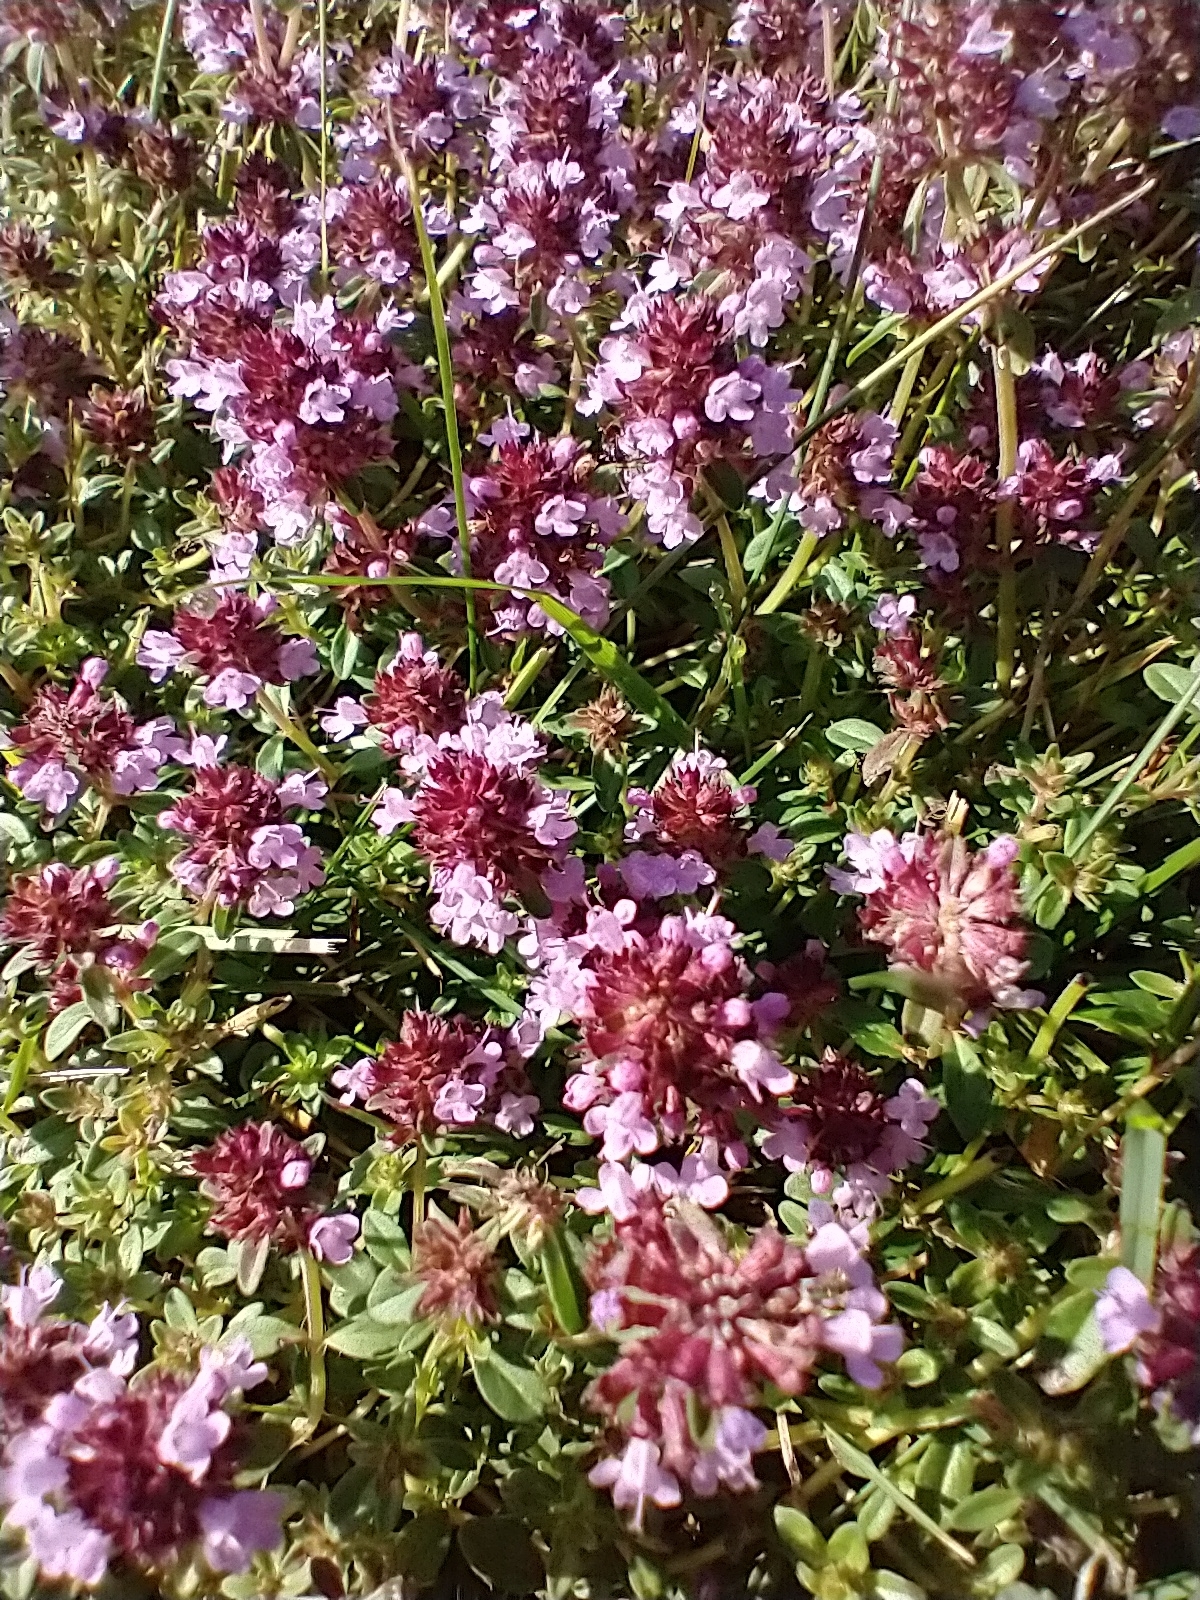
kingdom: Plantae
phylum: Tracheophyta
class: Magnoliopsida
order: Lamiales
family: Lamiaceae
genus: Thymus
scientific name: Thymus pulegioides
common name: Large thyme
